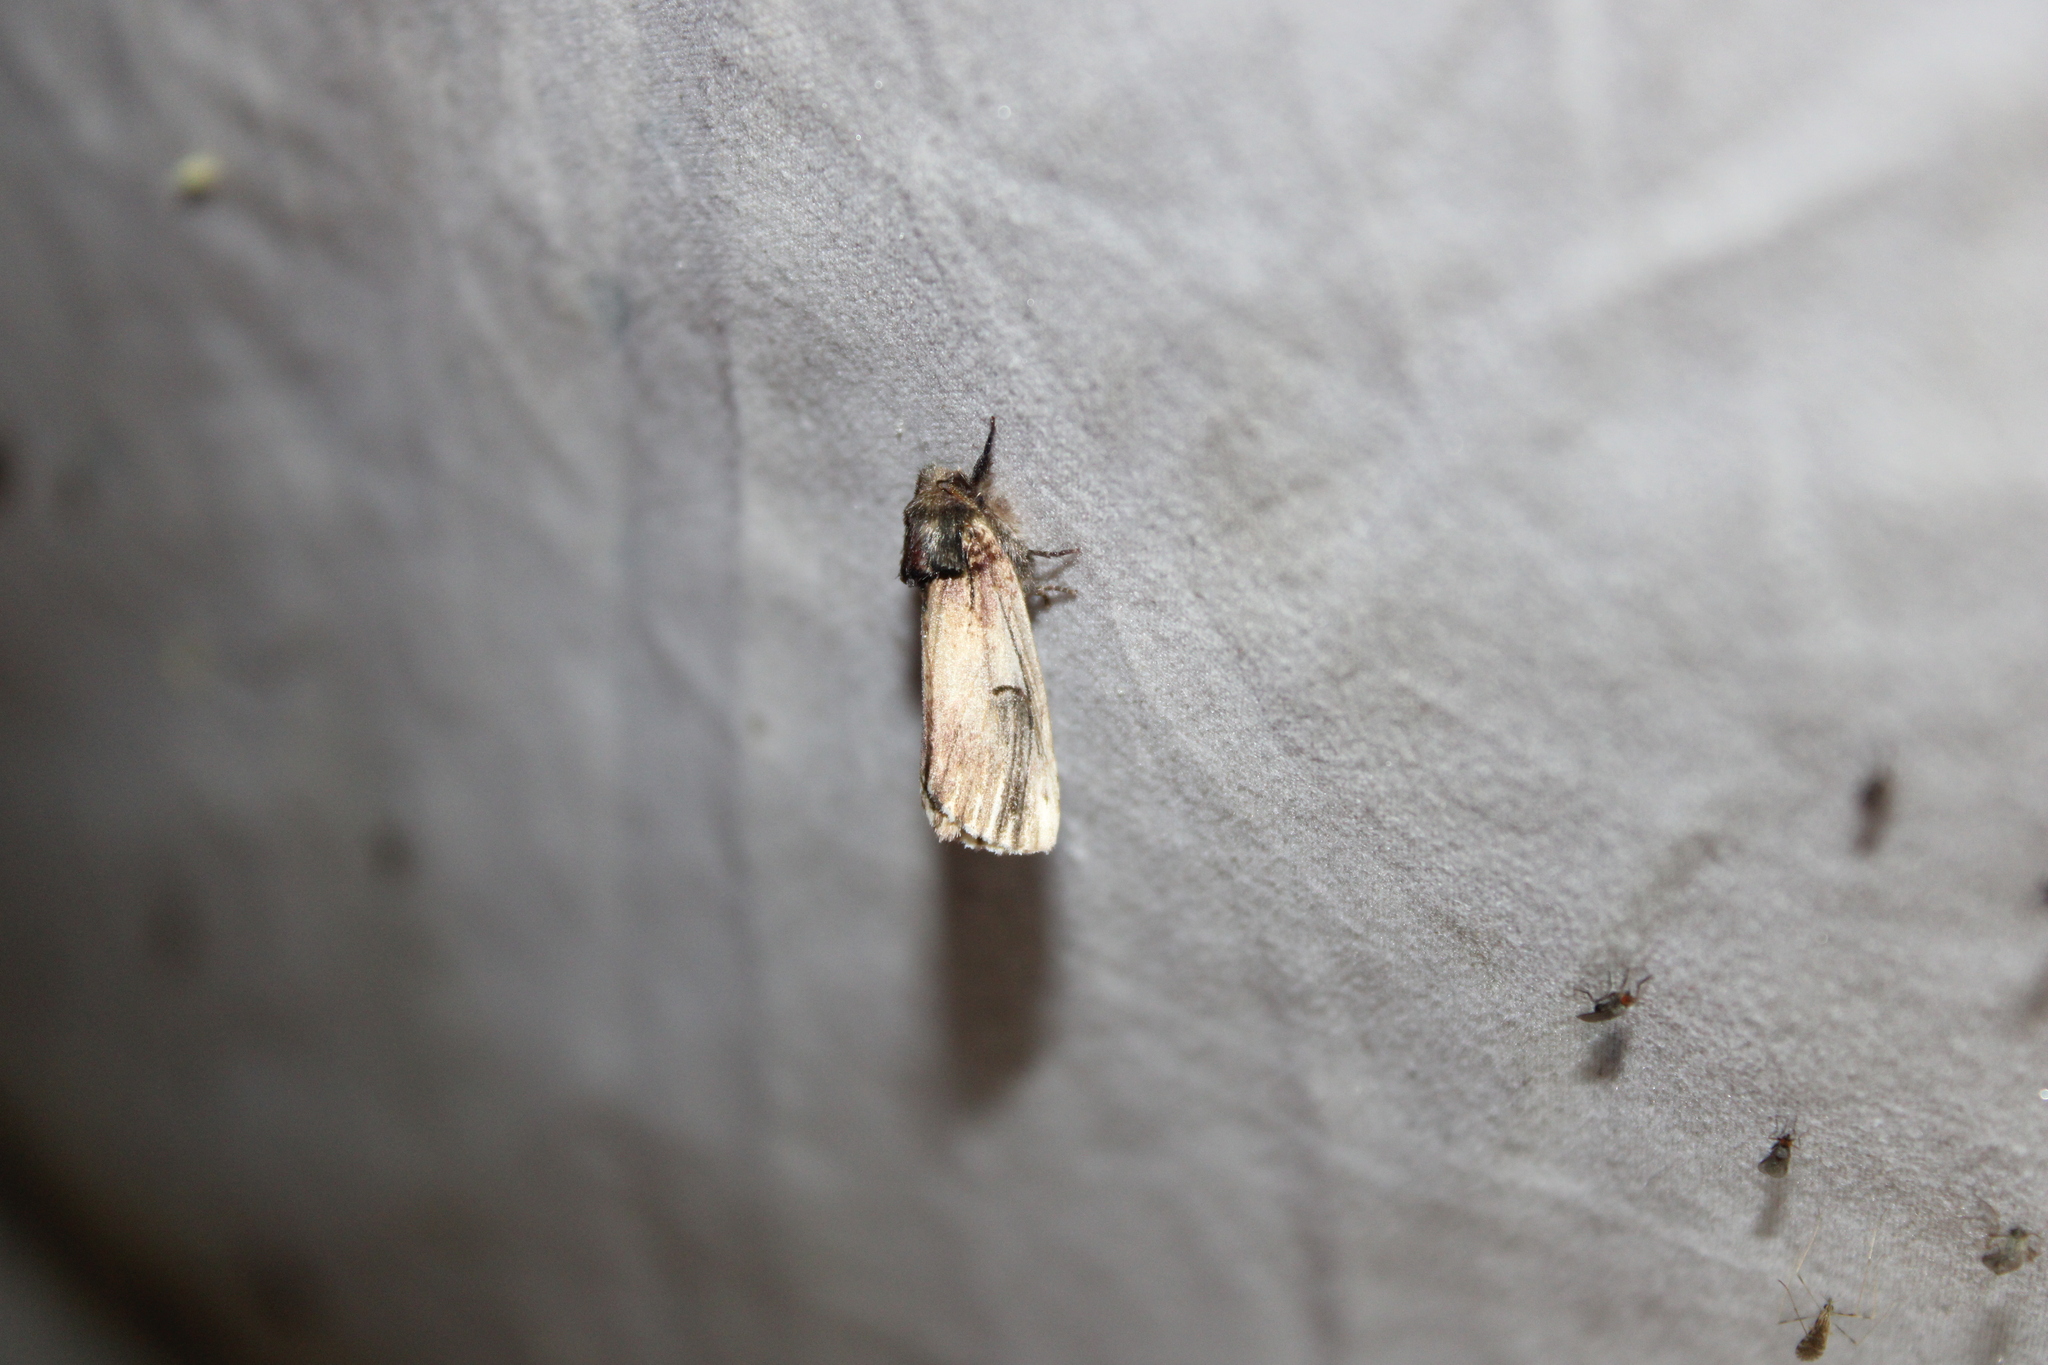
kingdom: Animalia
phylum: Arthropoda
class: Insecta
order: Lepidoptera
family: Notodontidae
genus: Schizura
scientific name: Schizura badia
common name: Chestnut schizura
